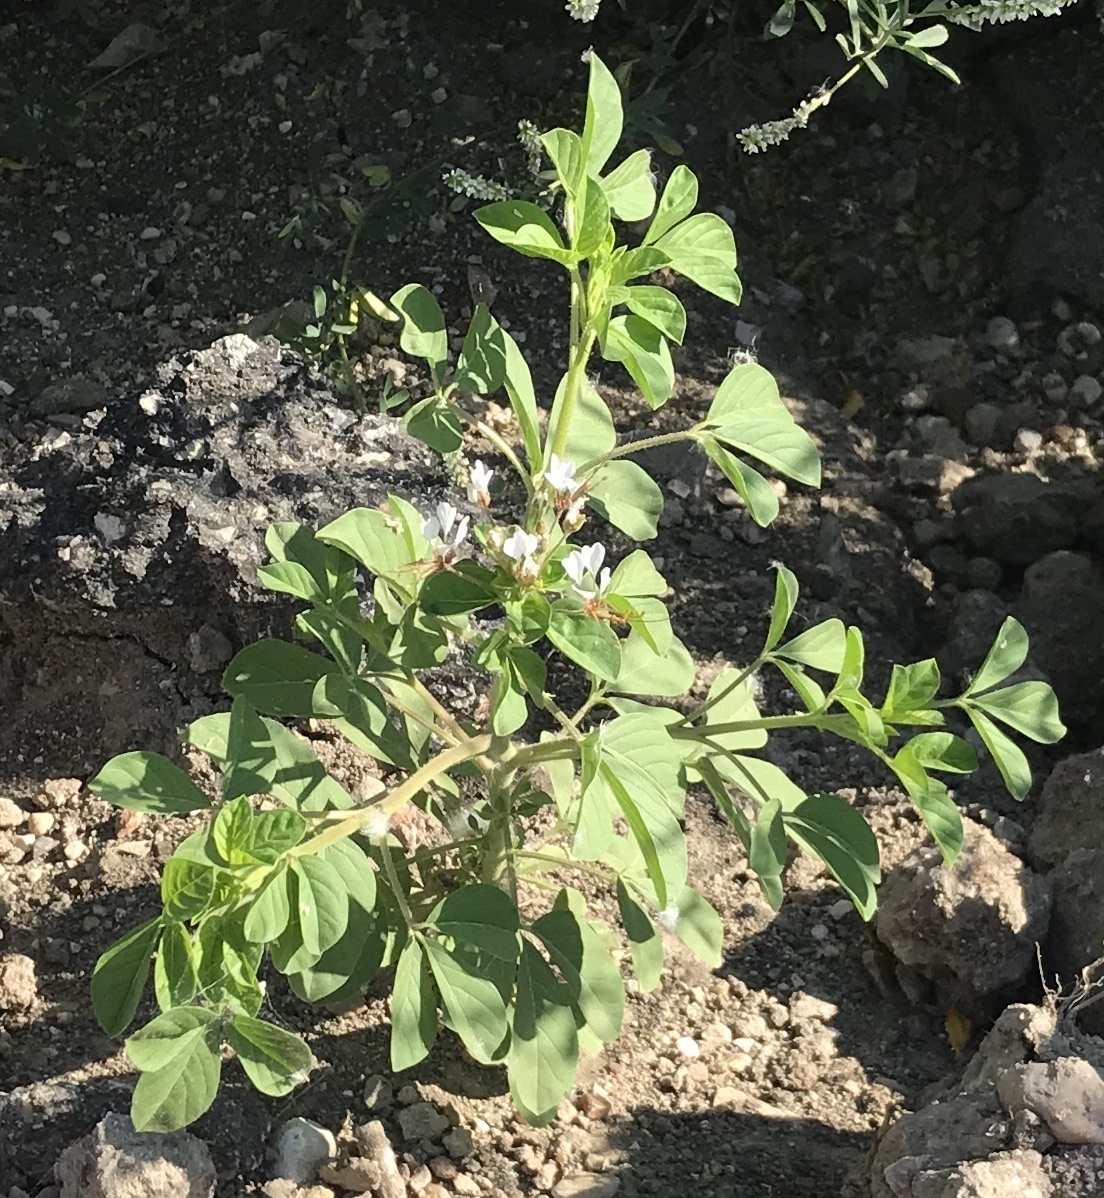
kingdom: Plantae
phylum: Tracheophyta
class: Magnoliopsida
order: Brassicales
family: Cleomaceae
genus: Polanisia
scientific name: Polanisia dodecandra
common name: Clammyweed
